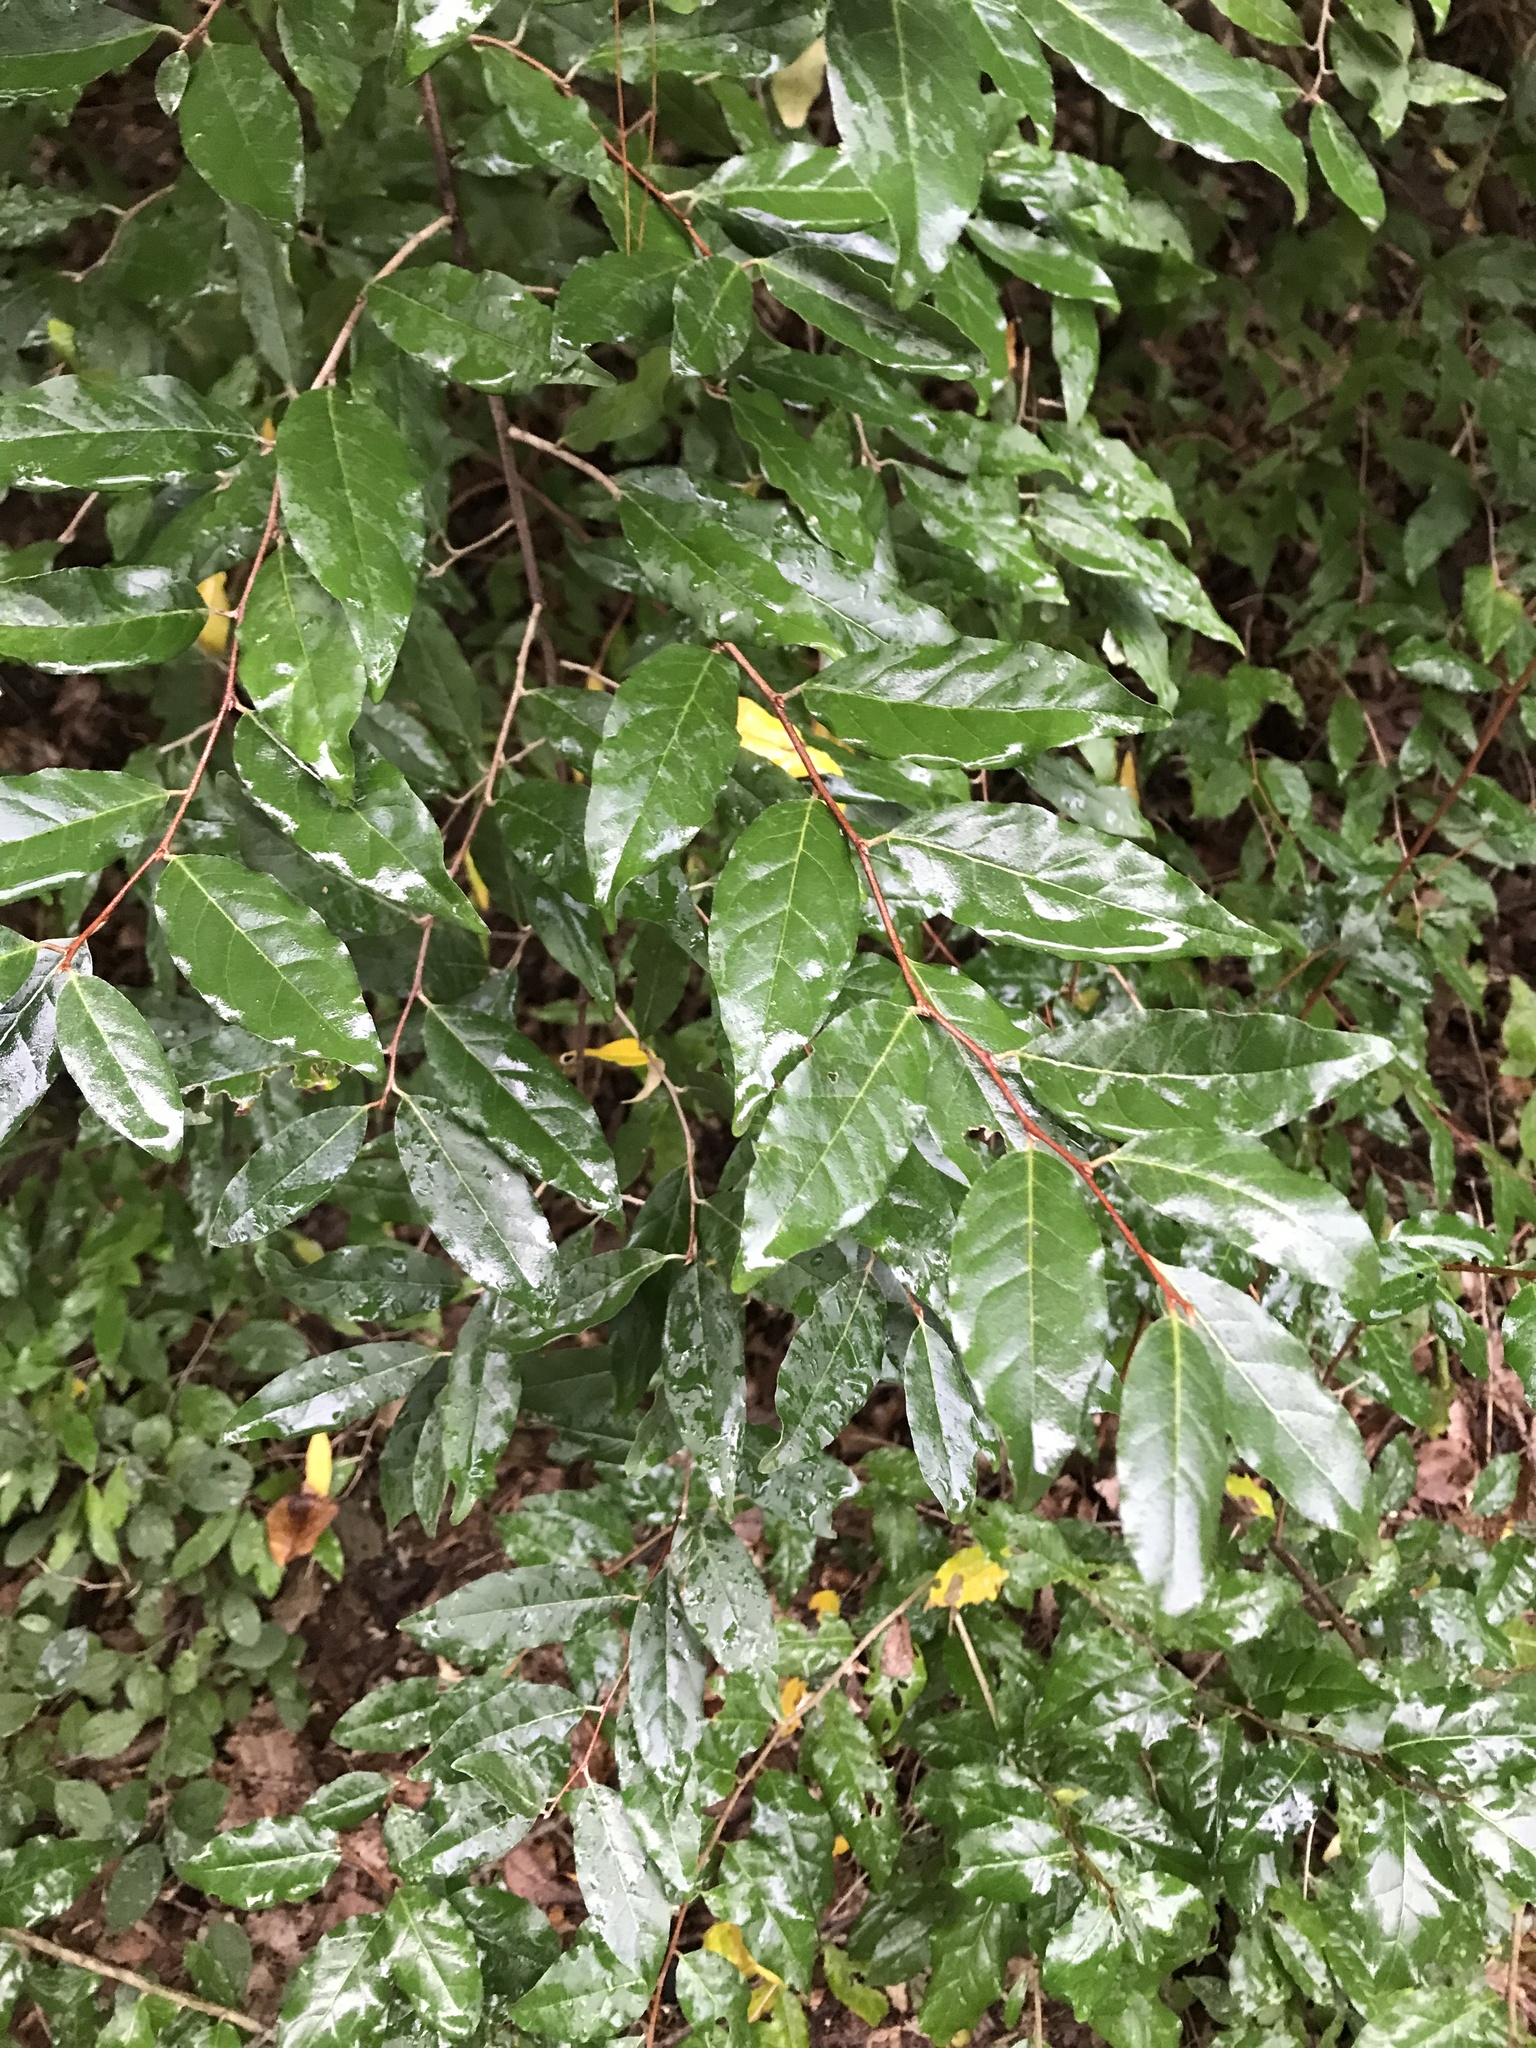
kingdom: Plantae
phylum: Tracheophyta
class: Magnoliopsida
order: Rosales
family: Elaeagnaceae
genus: Elaeagnus
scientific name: Elaeagnus umbellata
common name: Autumn olive
